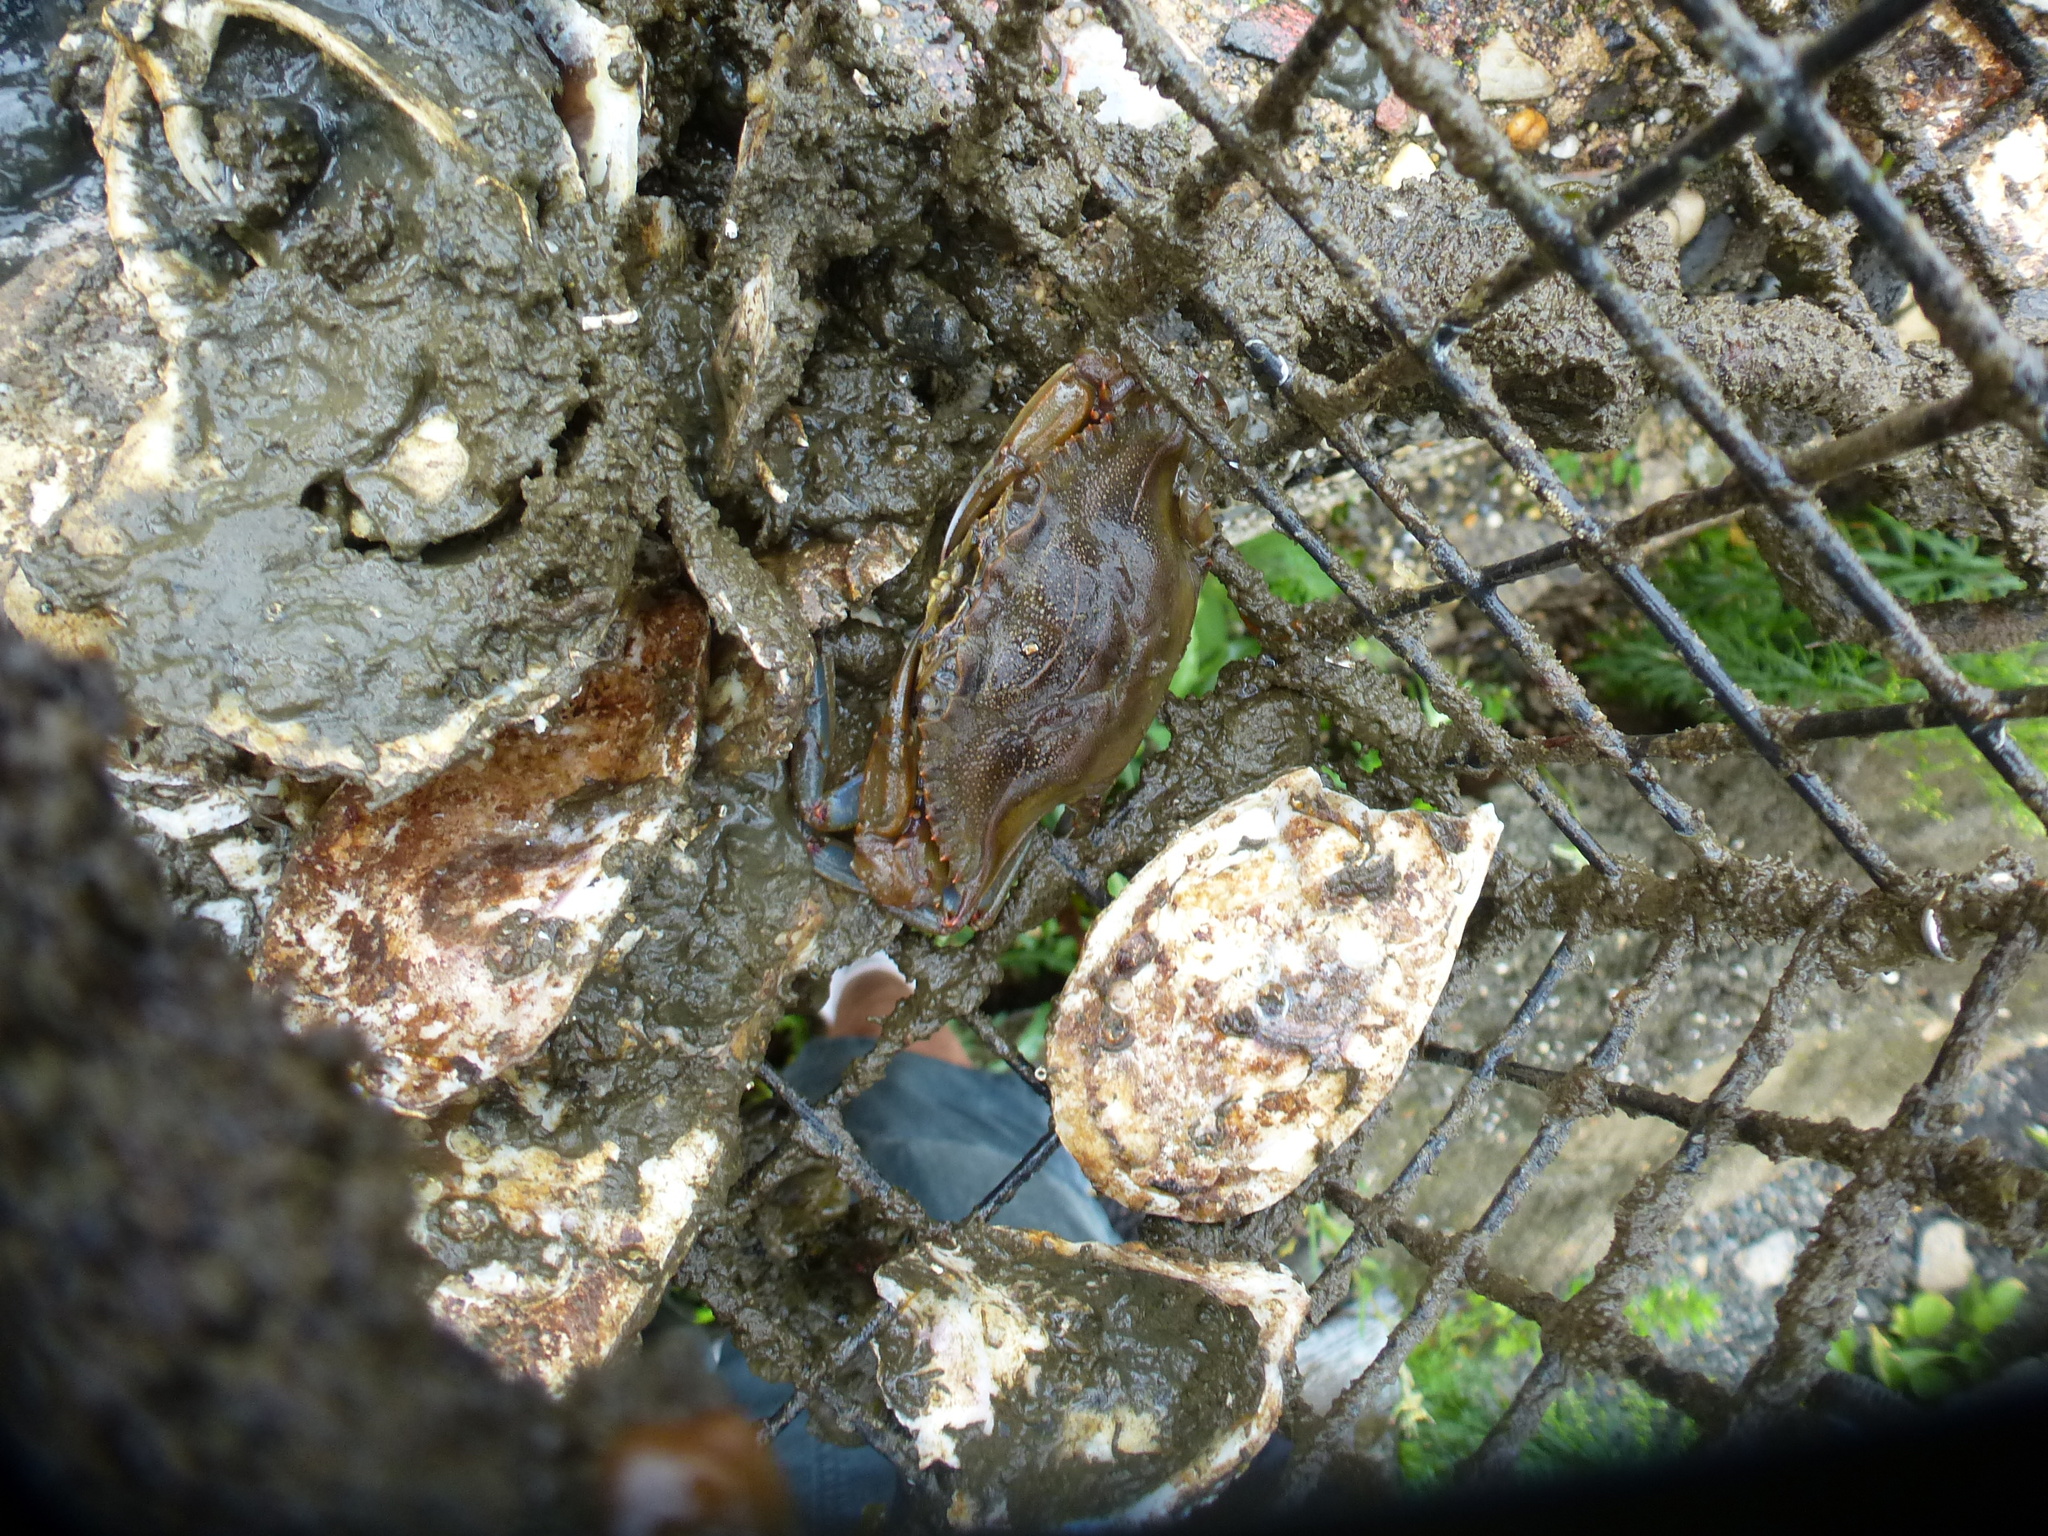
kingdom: Animalia
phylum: Arthropoda
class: Malacostraca
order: Decapoda
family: Portunidae
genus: Callinectes
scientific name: Callinectes sapidus
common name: Blue crab
